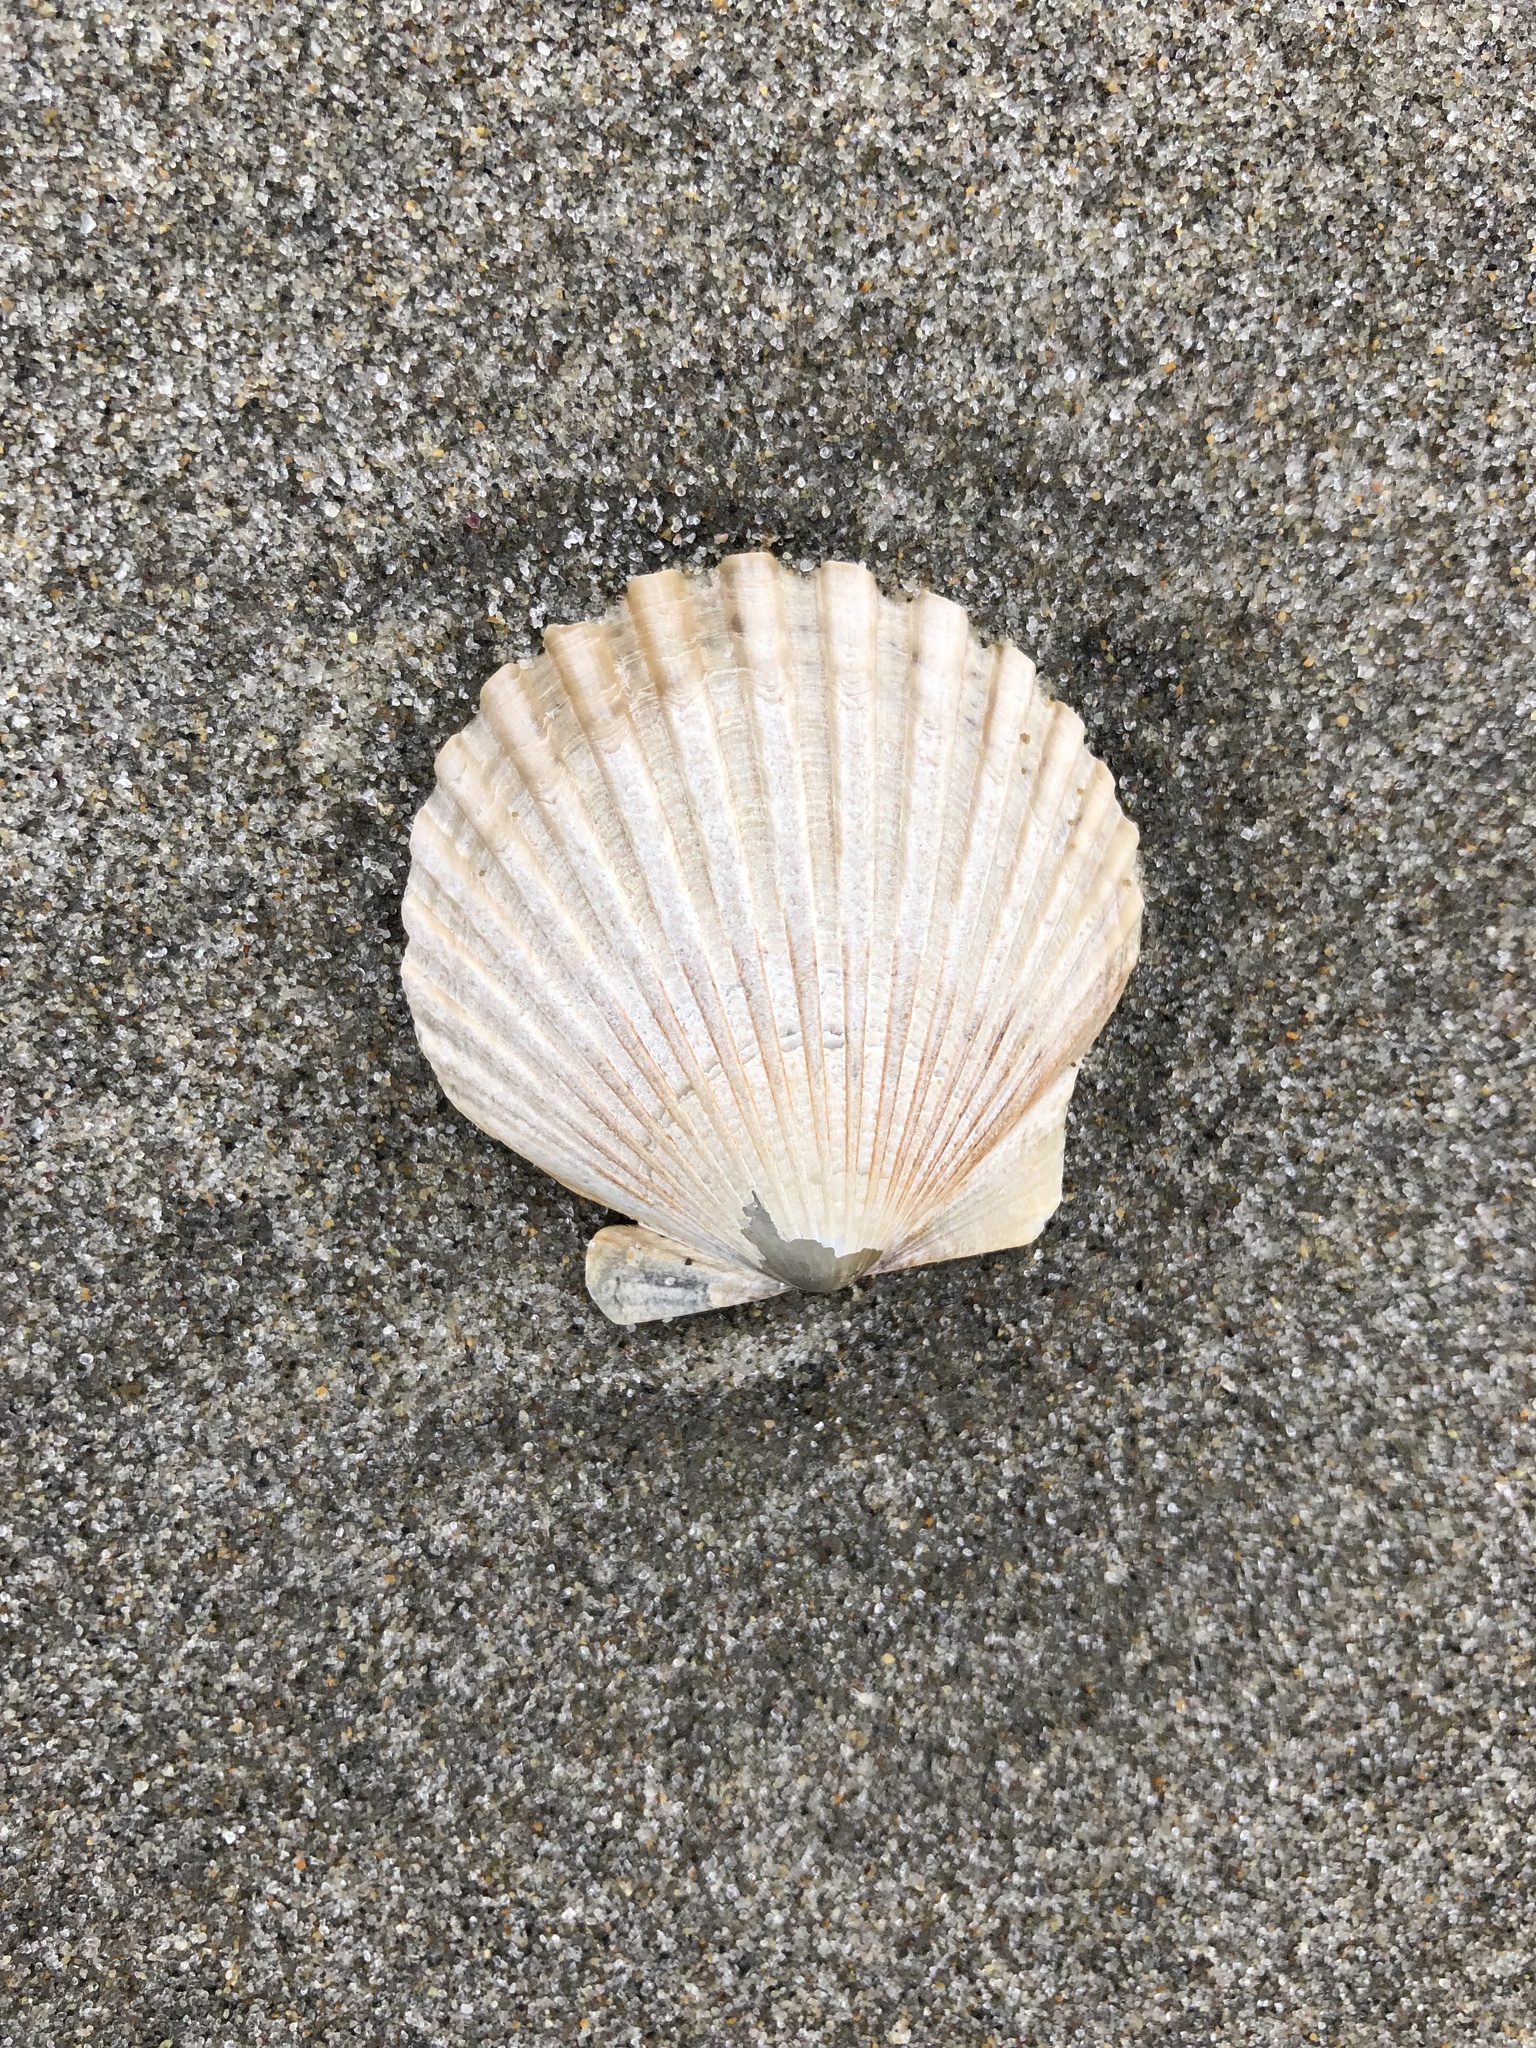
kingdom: Animalia
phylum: Mollusca
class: Bivalvia
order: Pectinida
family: Pectinidae
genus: Argopecten
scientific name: Argopecten irradians
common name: Atlantic bay scallop
